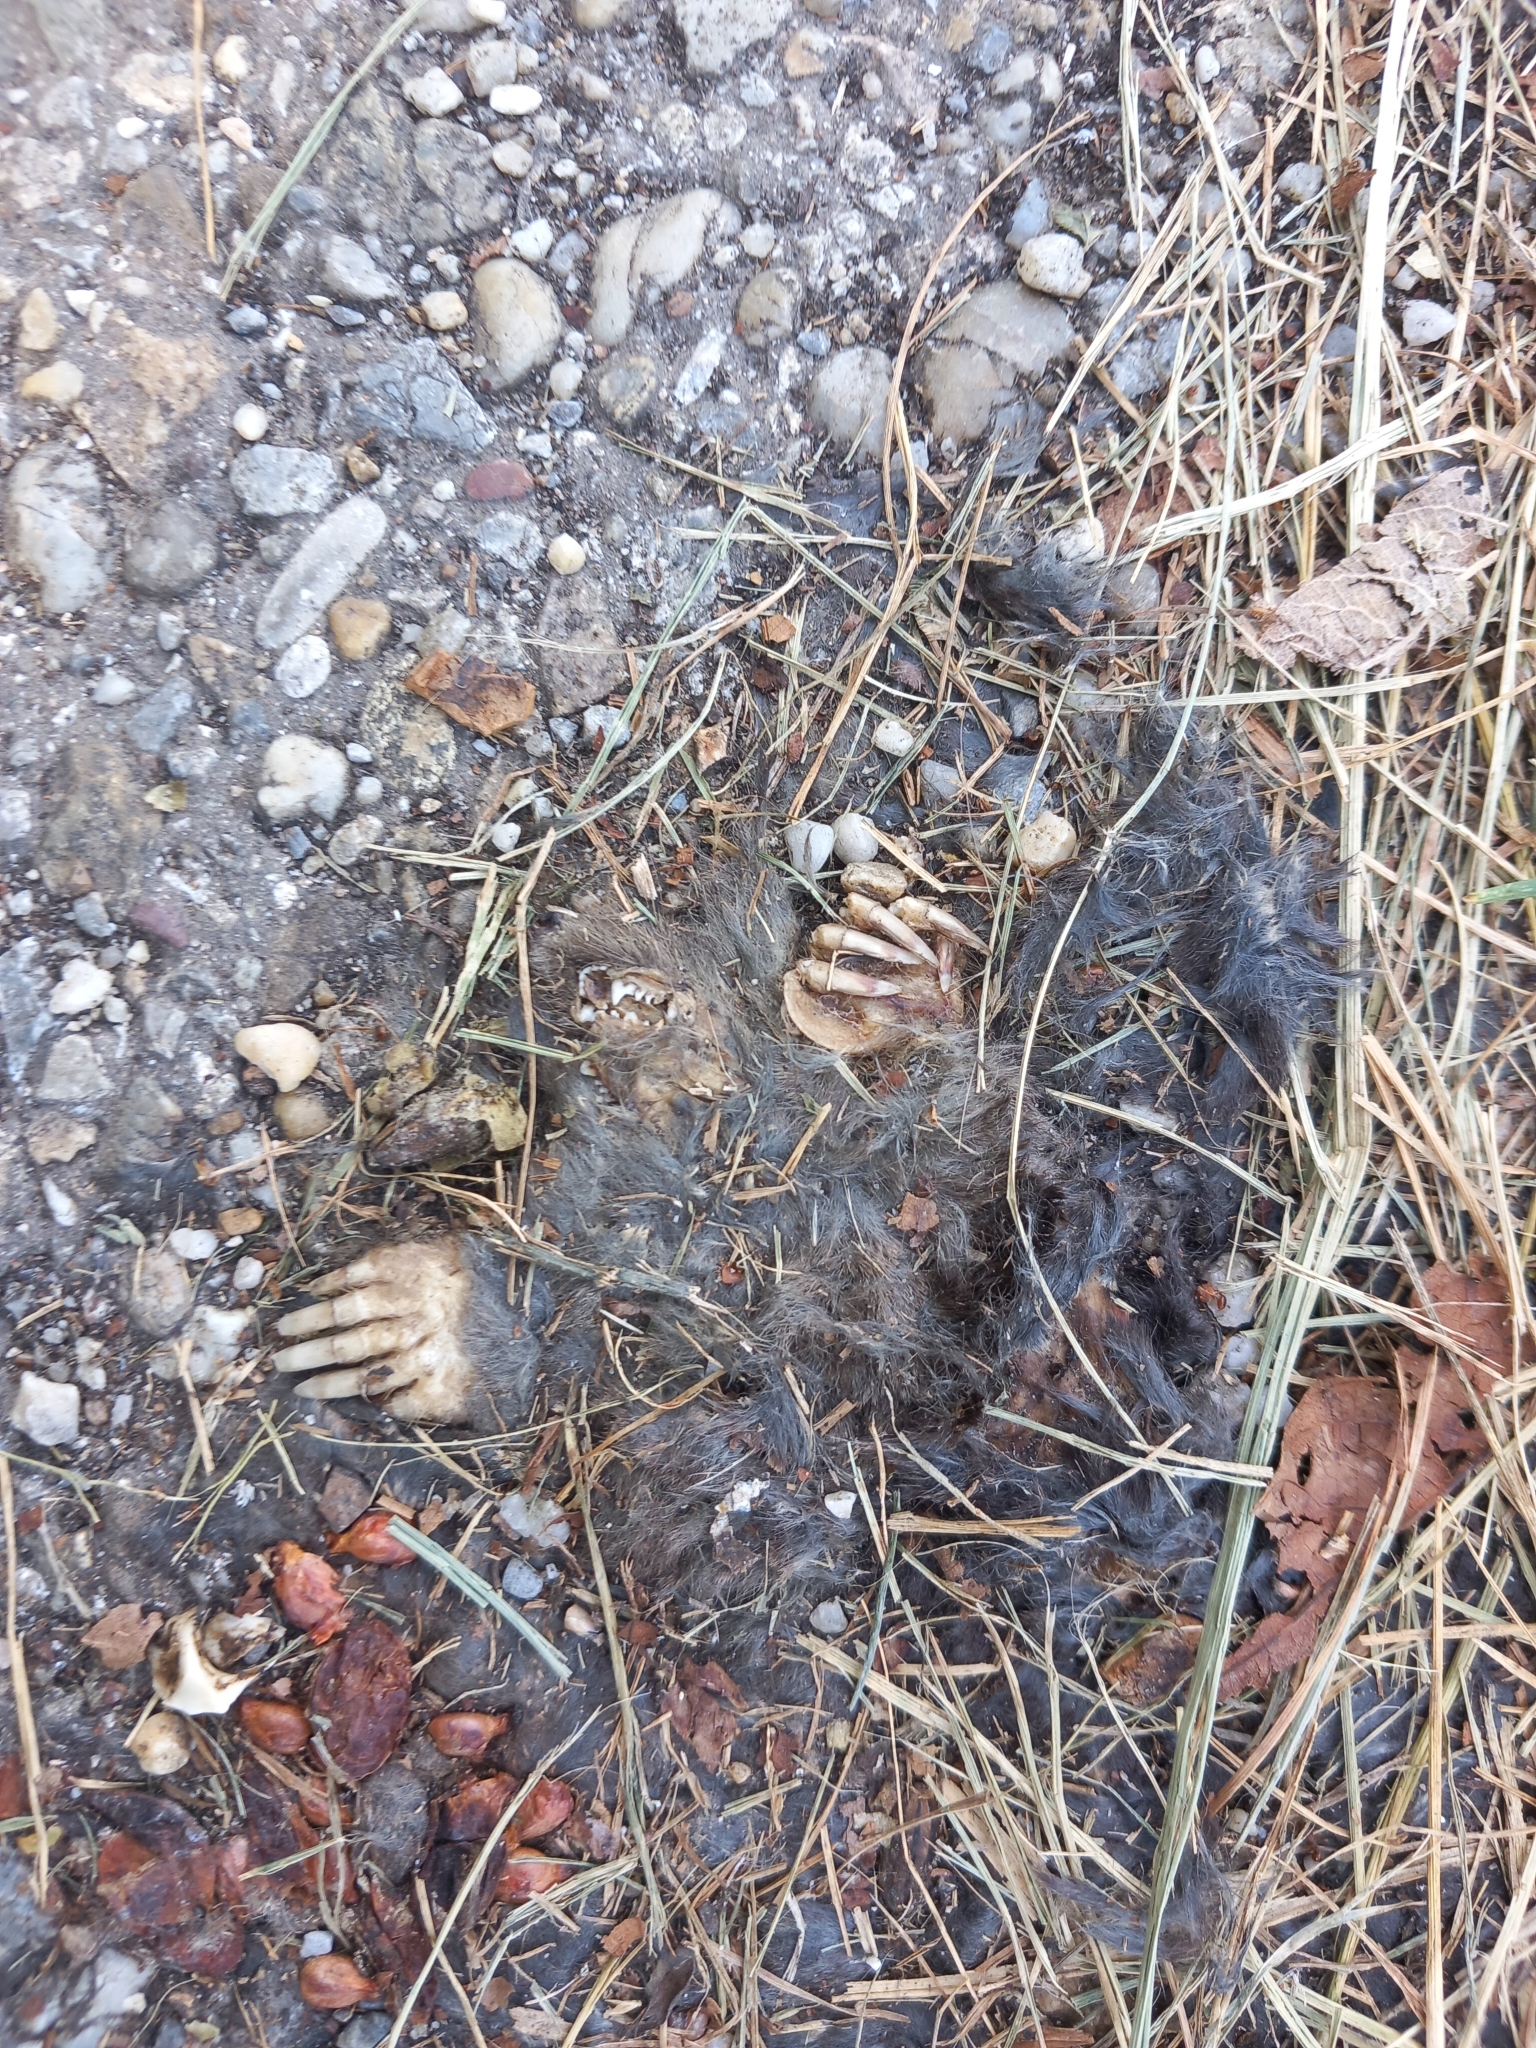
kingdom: Animalia
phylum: Chordata
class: Mammalia
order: Soricomorpha
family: Talpidae
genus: Talpa
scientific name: Talpa europaea
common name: European mole
